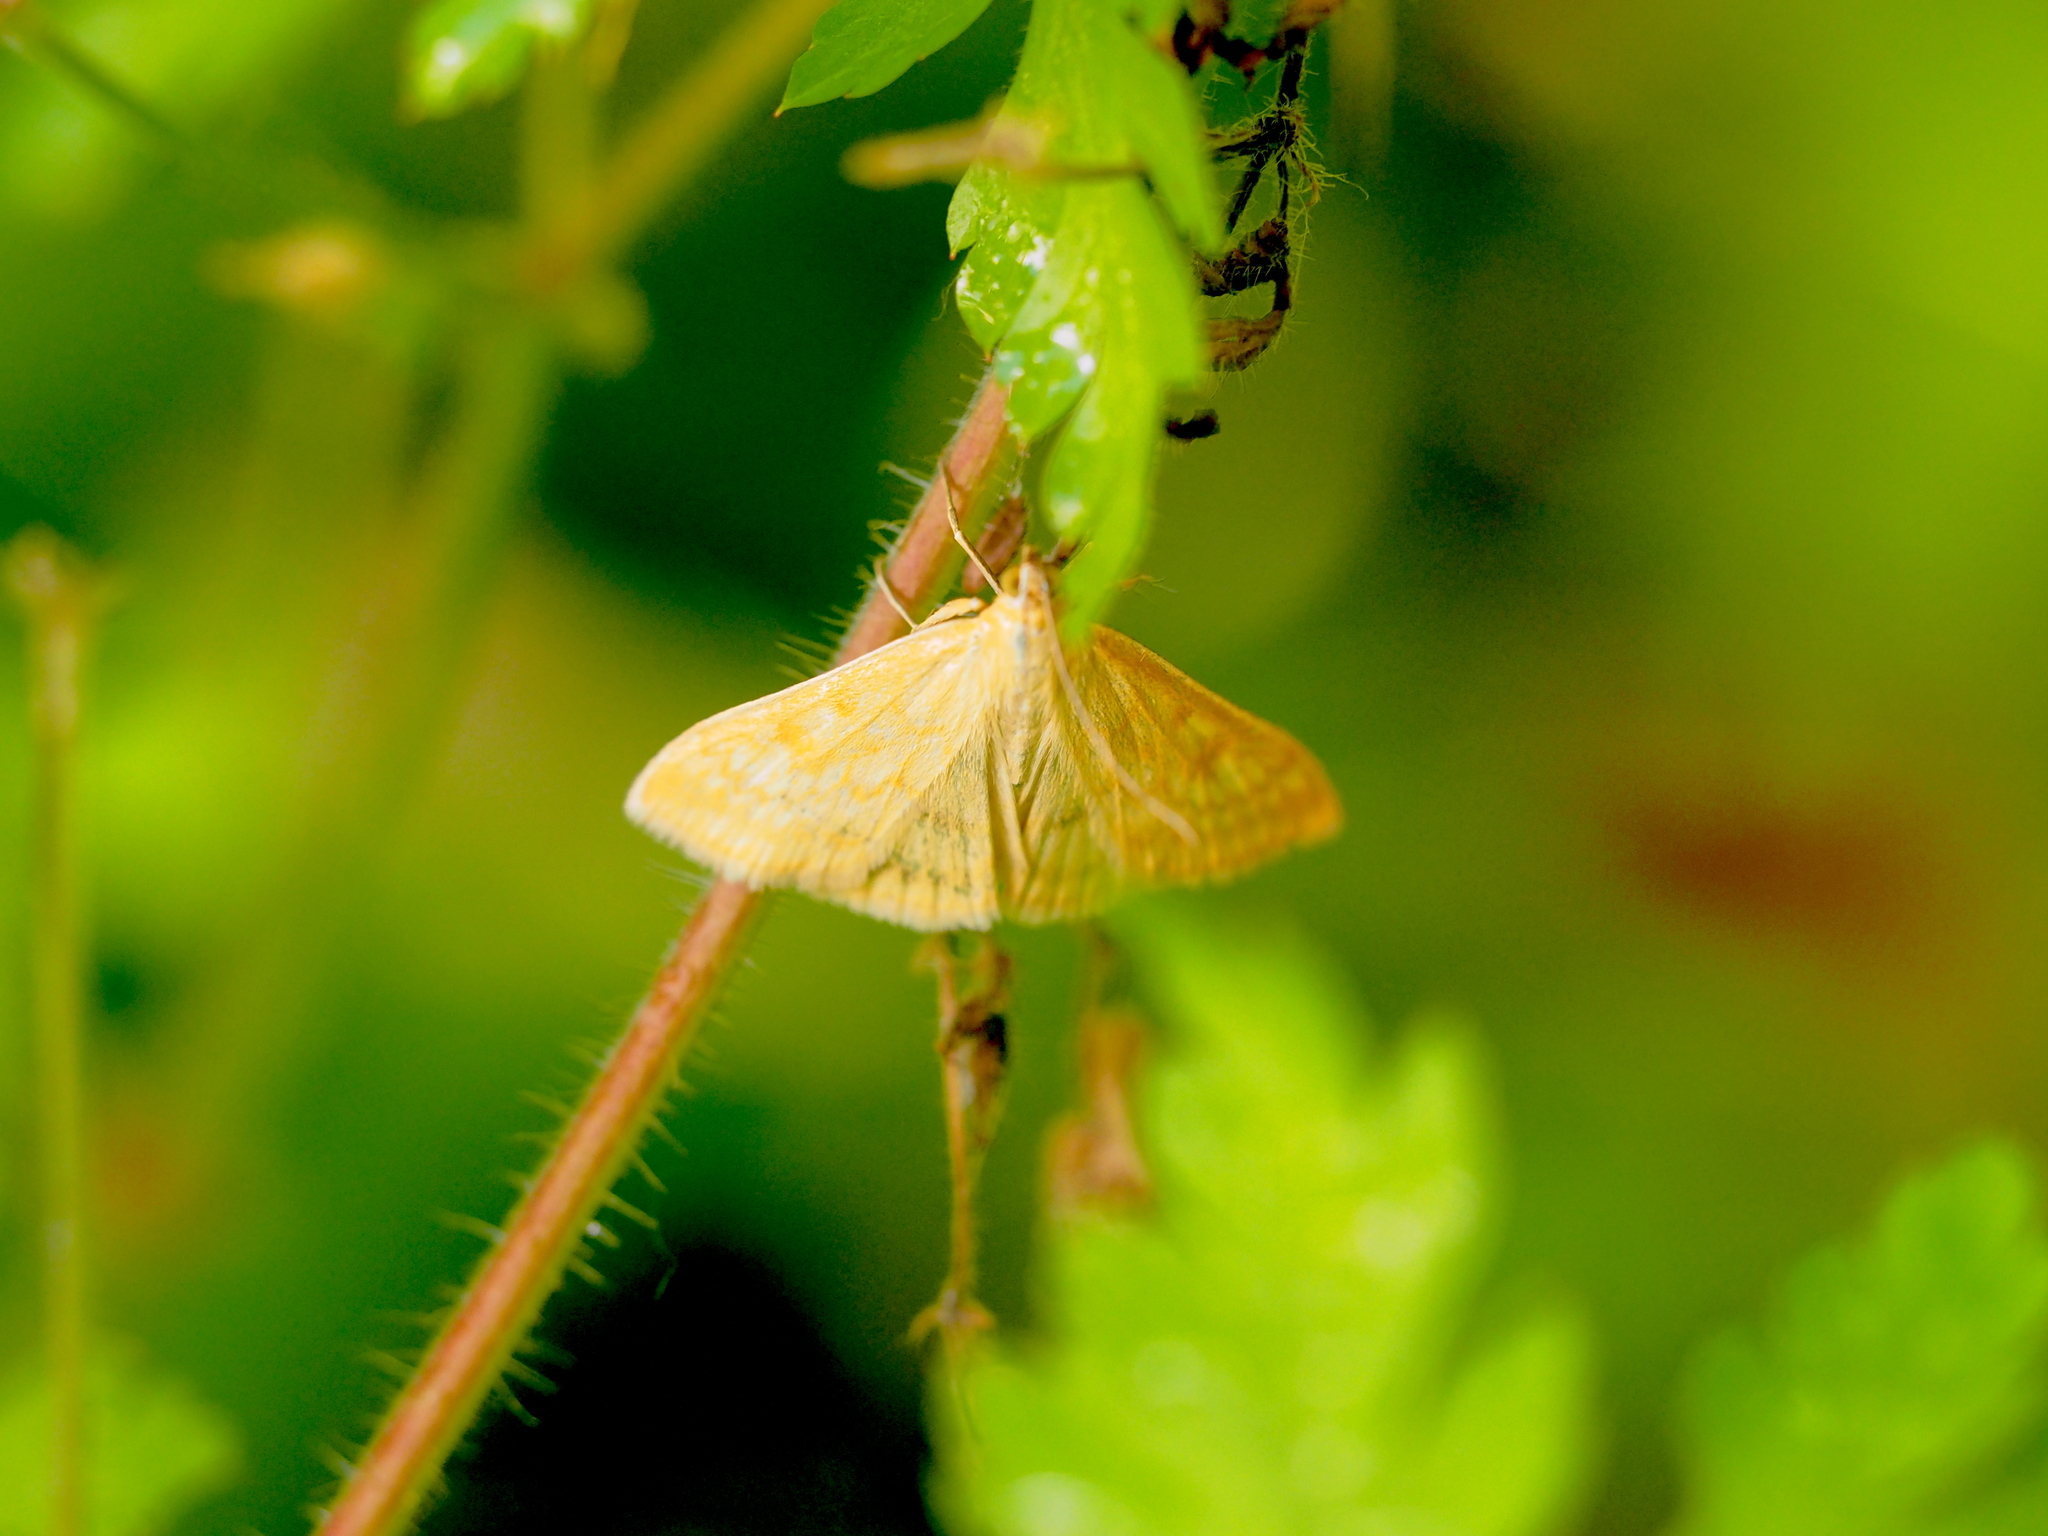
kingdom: Animalia
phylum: Arthropoda
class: Insecta
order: Lepidoptera
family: Crambidae
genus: Sitochroa
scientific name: Sitochroa verticalis
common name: Lesser pearl
